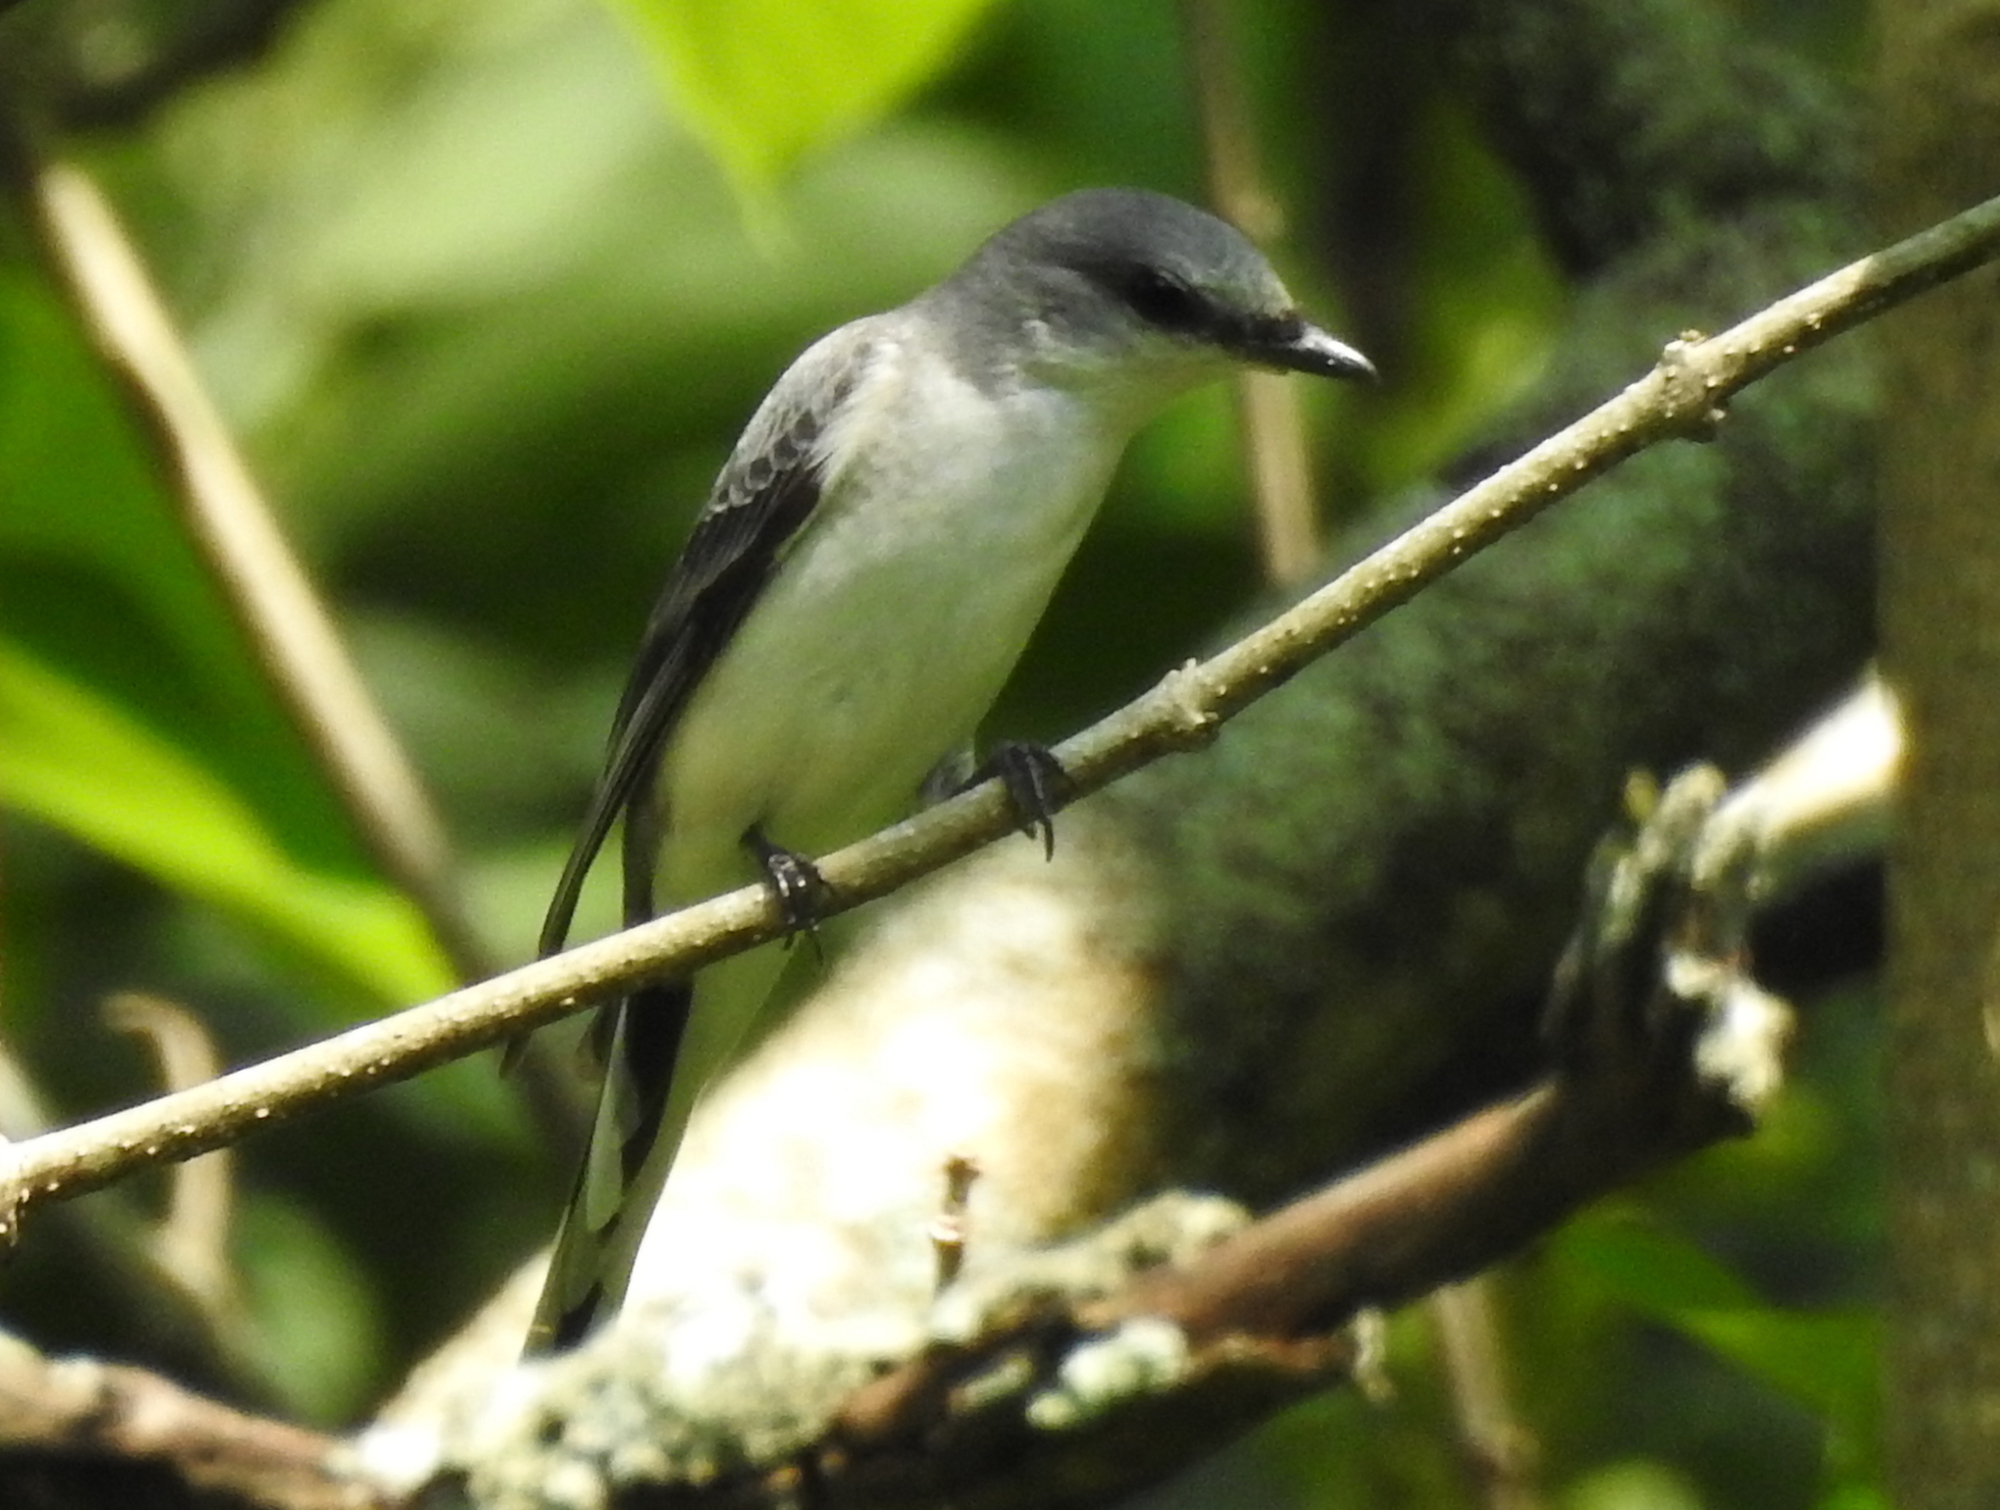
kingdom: Animalia
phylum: Chordata
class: Aves
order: Passeriformes
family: Campephagidae
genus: Pericrocotus
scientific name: Pericrocotus divaricatus
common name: Ashy minivet
